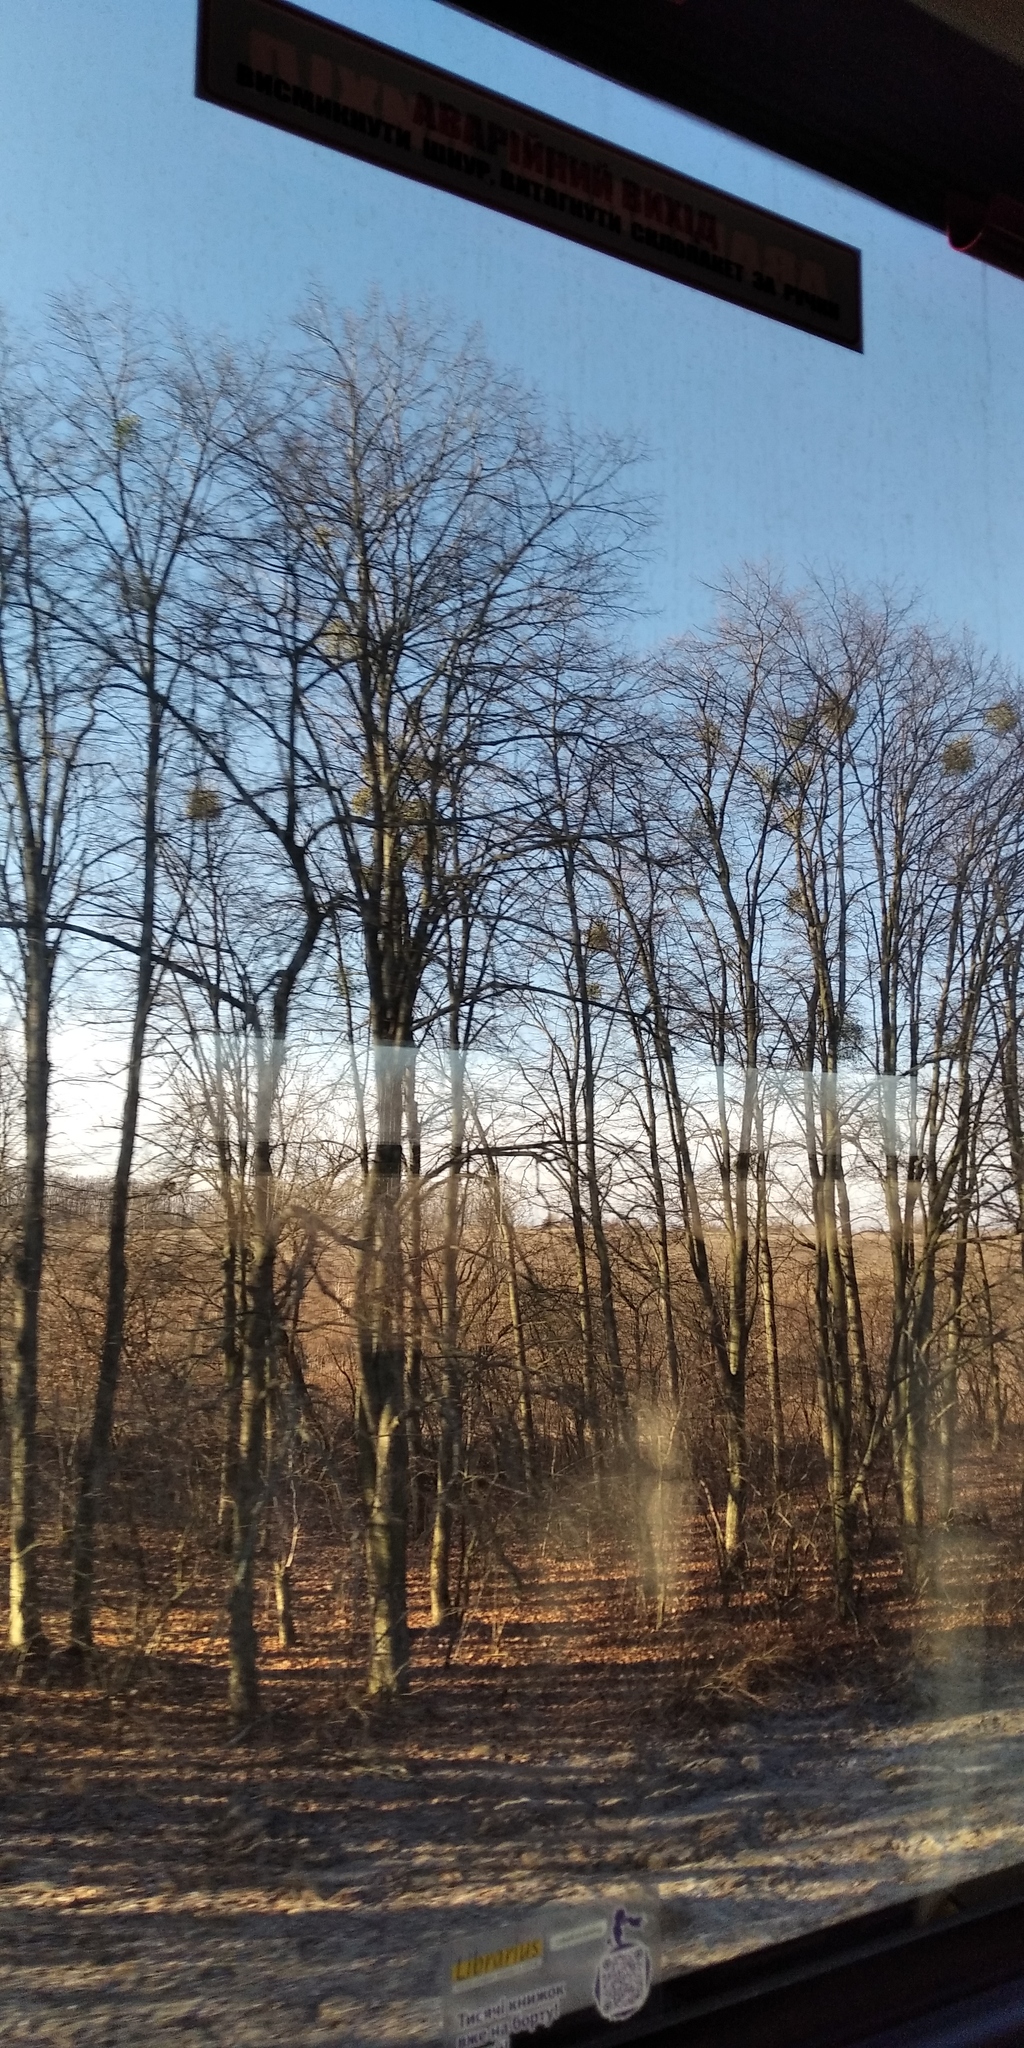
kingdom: Plantae
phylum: Tracheophyta
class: Magnoliopsida
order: Santalales
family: Viscaceae
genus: Viscum
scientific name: Viscum album
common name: Mistletoe
